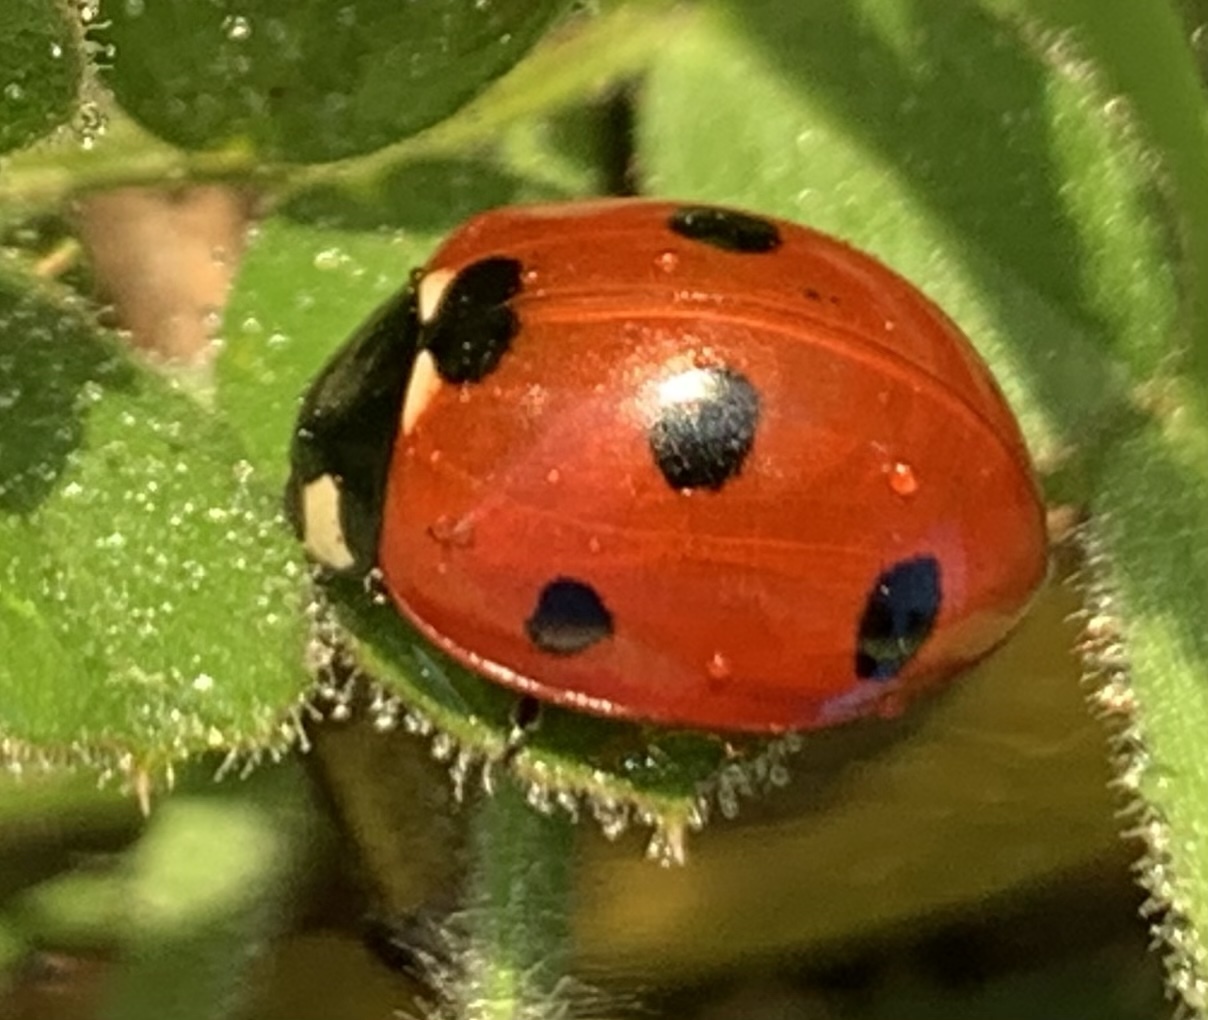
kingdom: Animalia
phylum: Arthropoda
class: Insecta
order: Coleoptera
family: Coccinellidae
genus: Coccinella
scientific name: Coccinella septempunctata
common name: Sevenspotted lady beetle
